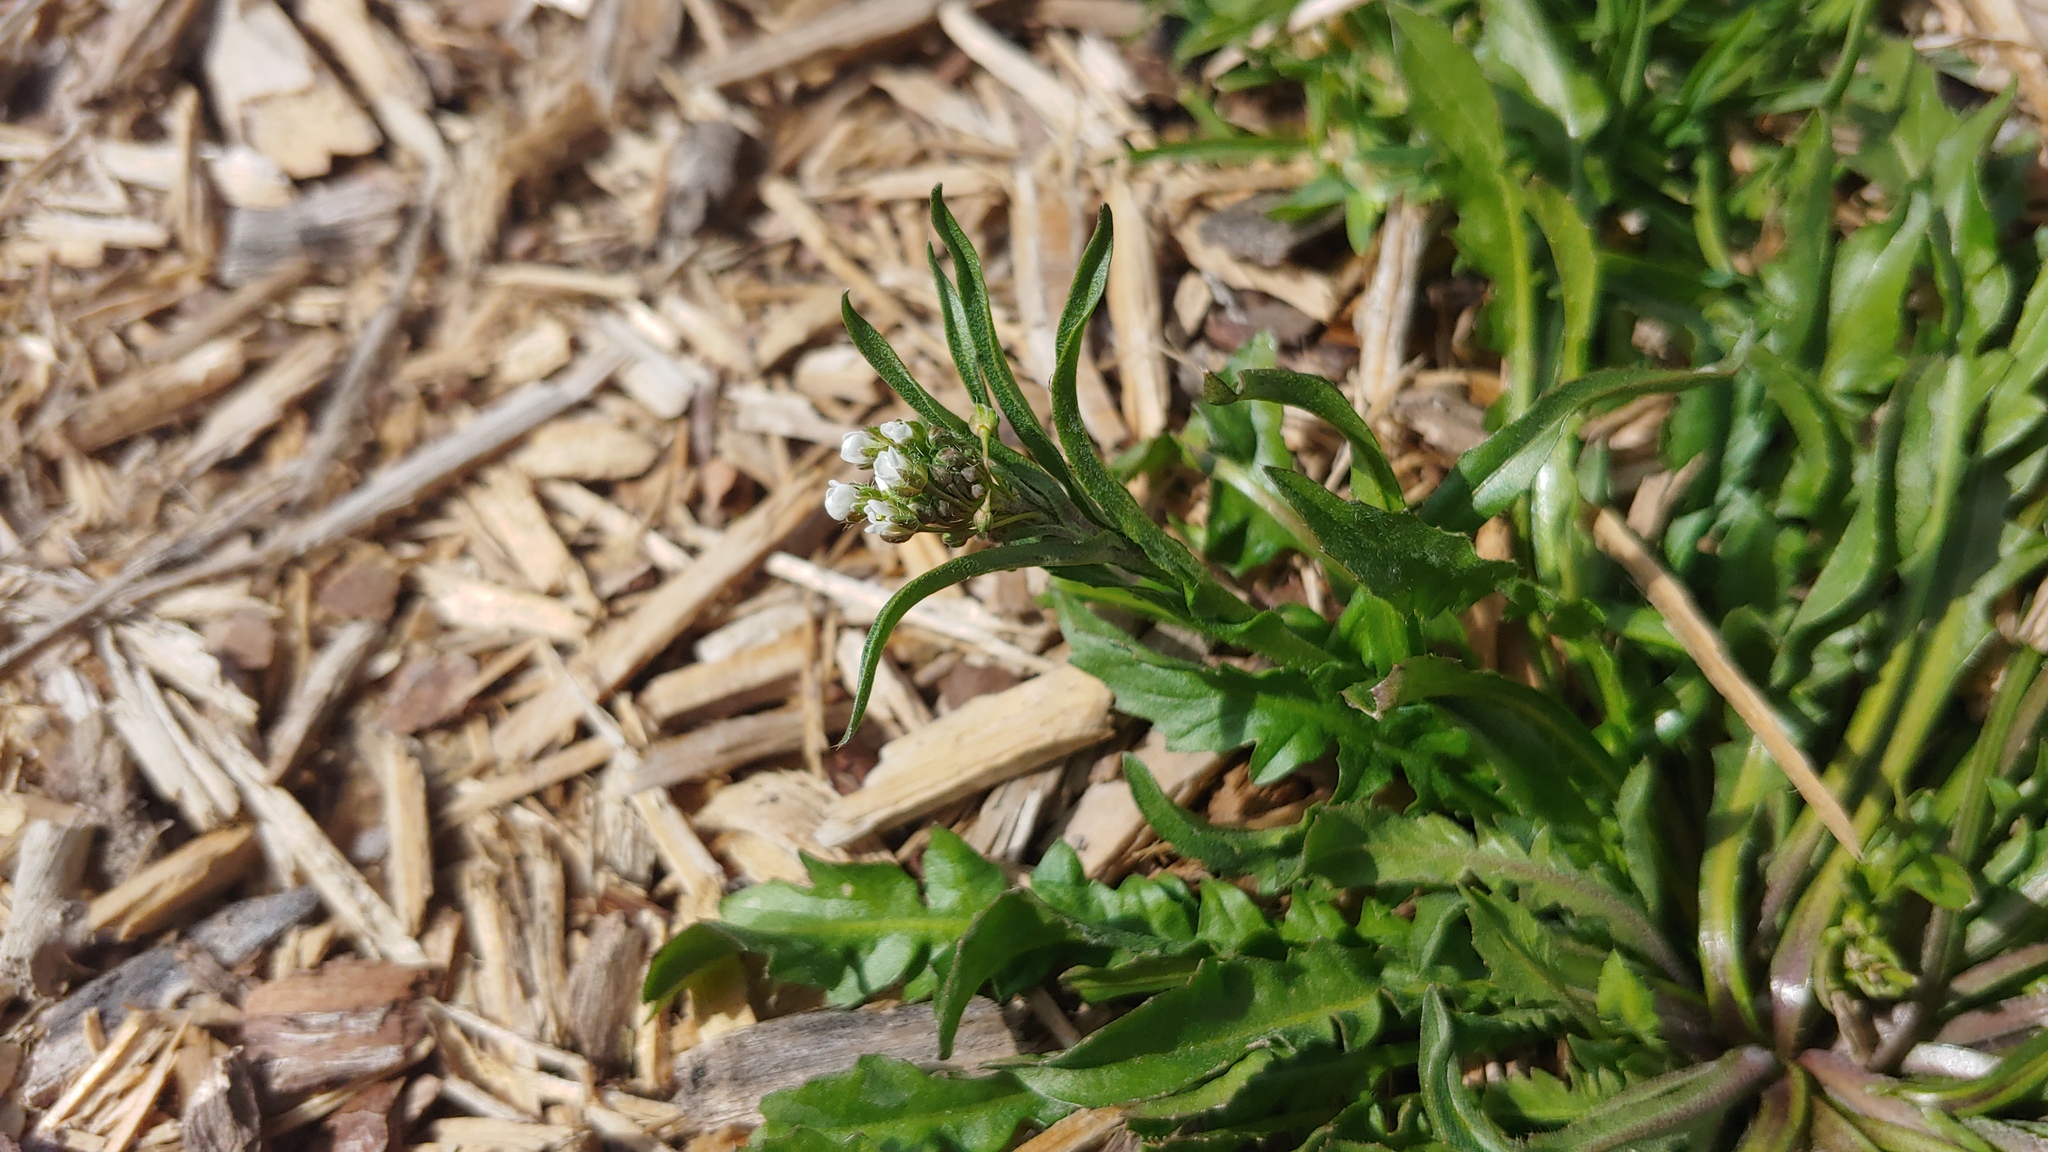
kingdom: Plantae
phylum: Tracheophyta
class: Magnoliopsida
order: Brassicales
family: Brassicaceae
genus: Capsella
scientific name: Capsella bursa-pastoris
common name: Shepherd's purse
